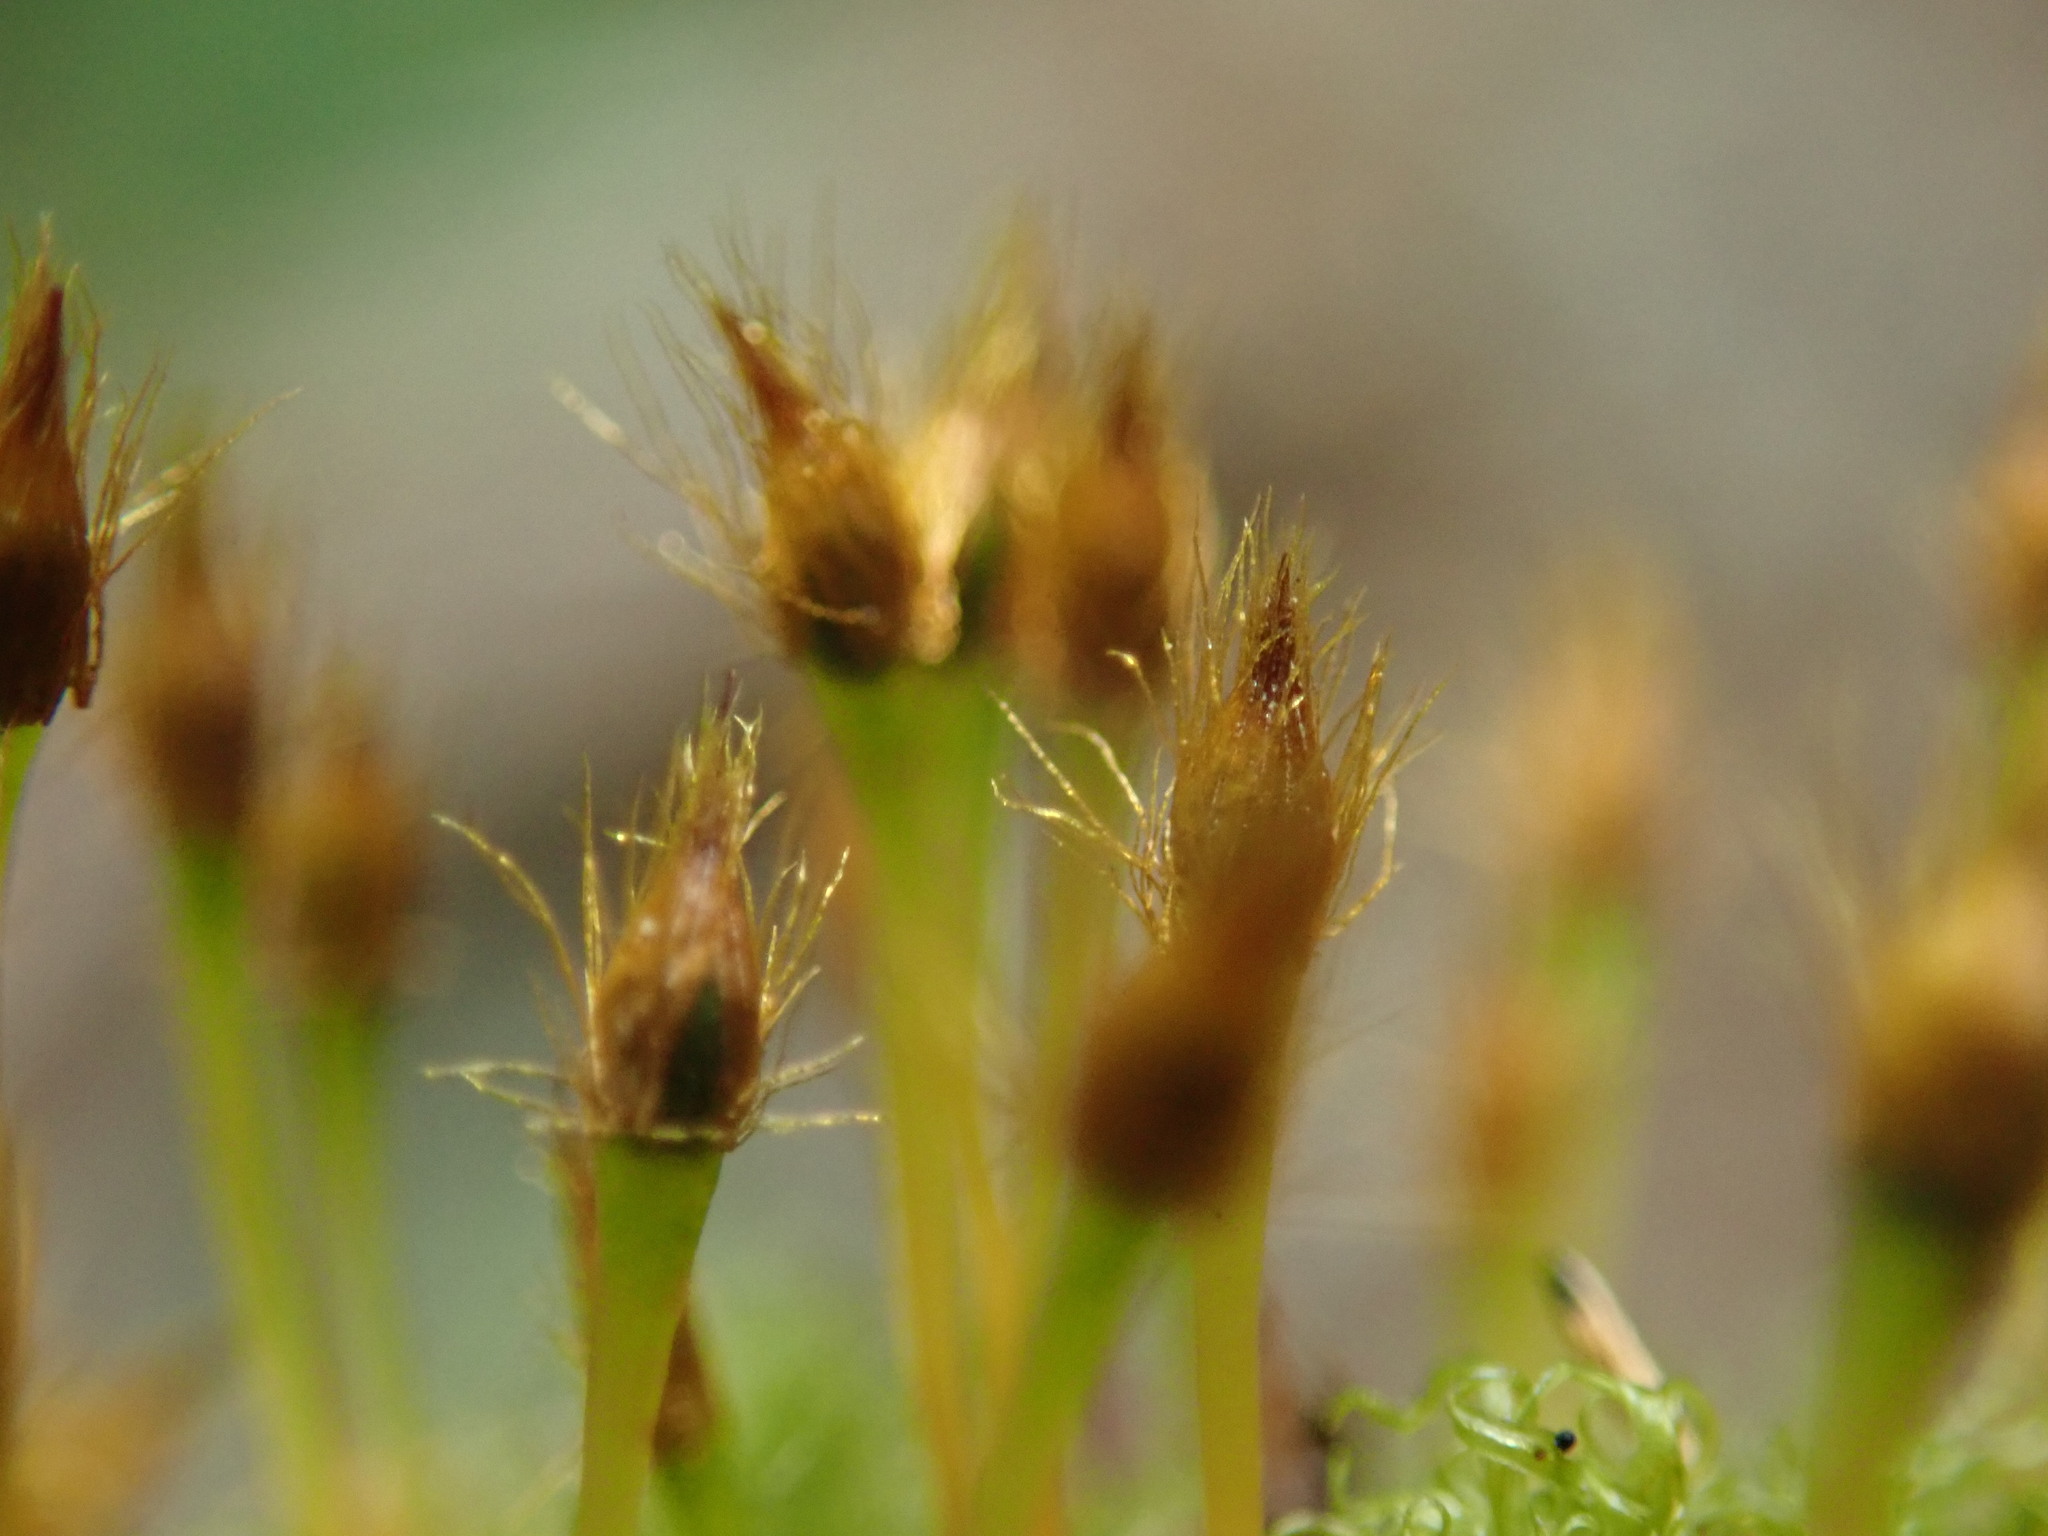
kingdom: Plantae
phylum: Bryophyta
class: Bryopsida
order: Orthotrichales
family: Orthotrichaceae
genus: Ulota
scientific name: Ulota obtusiuscula
